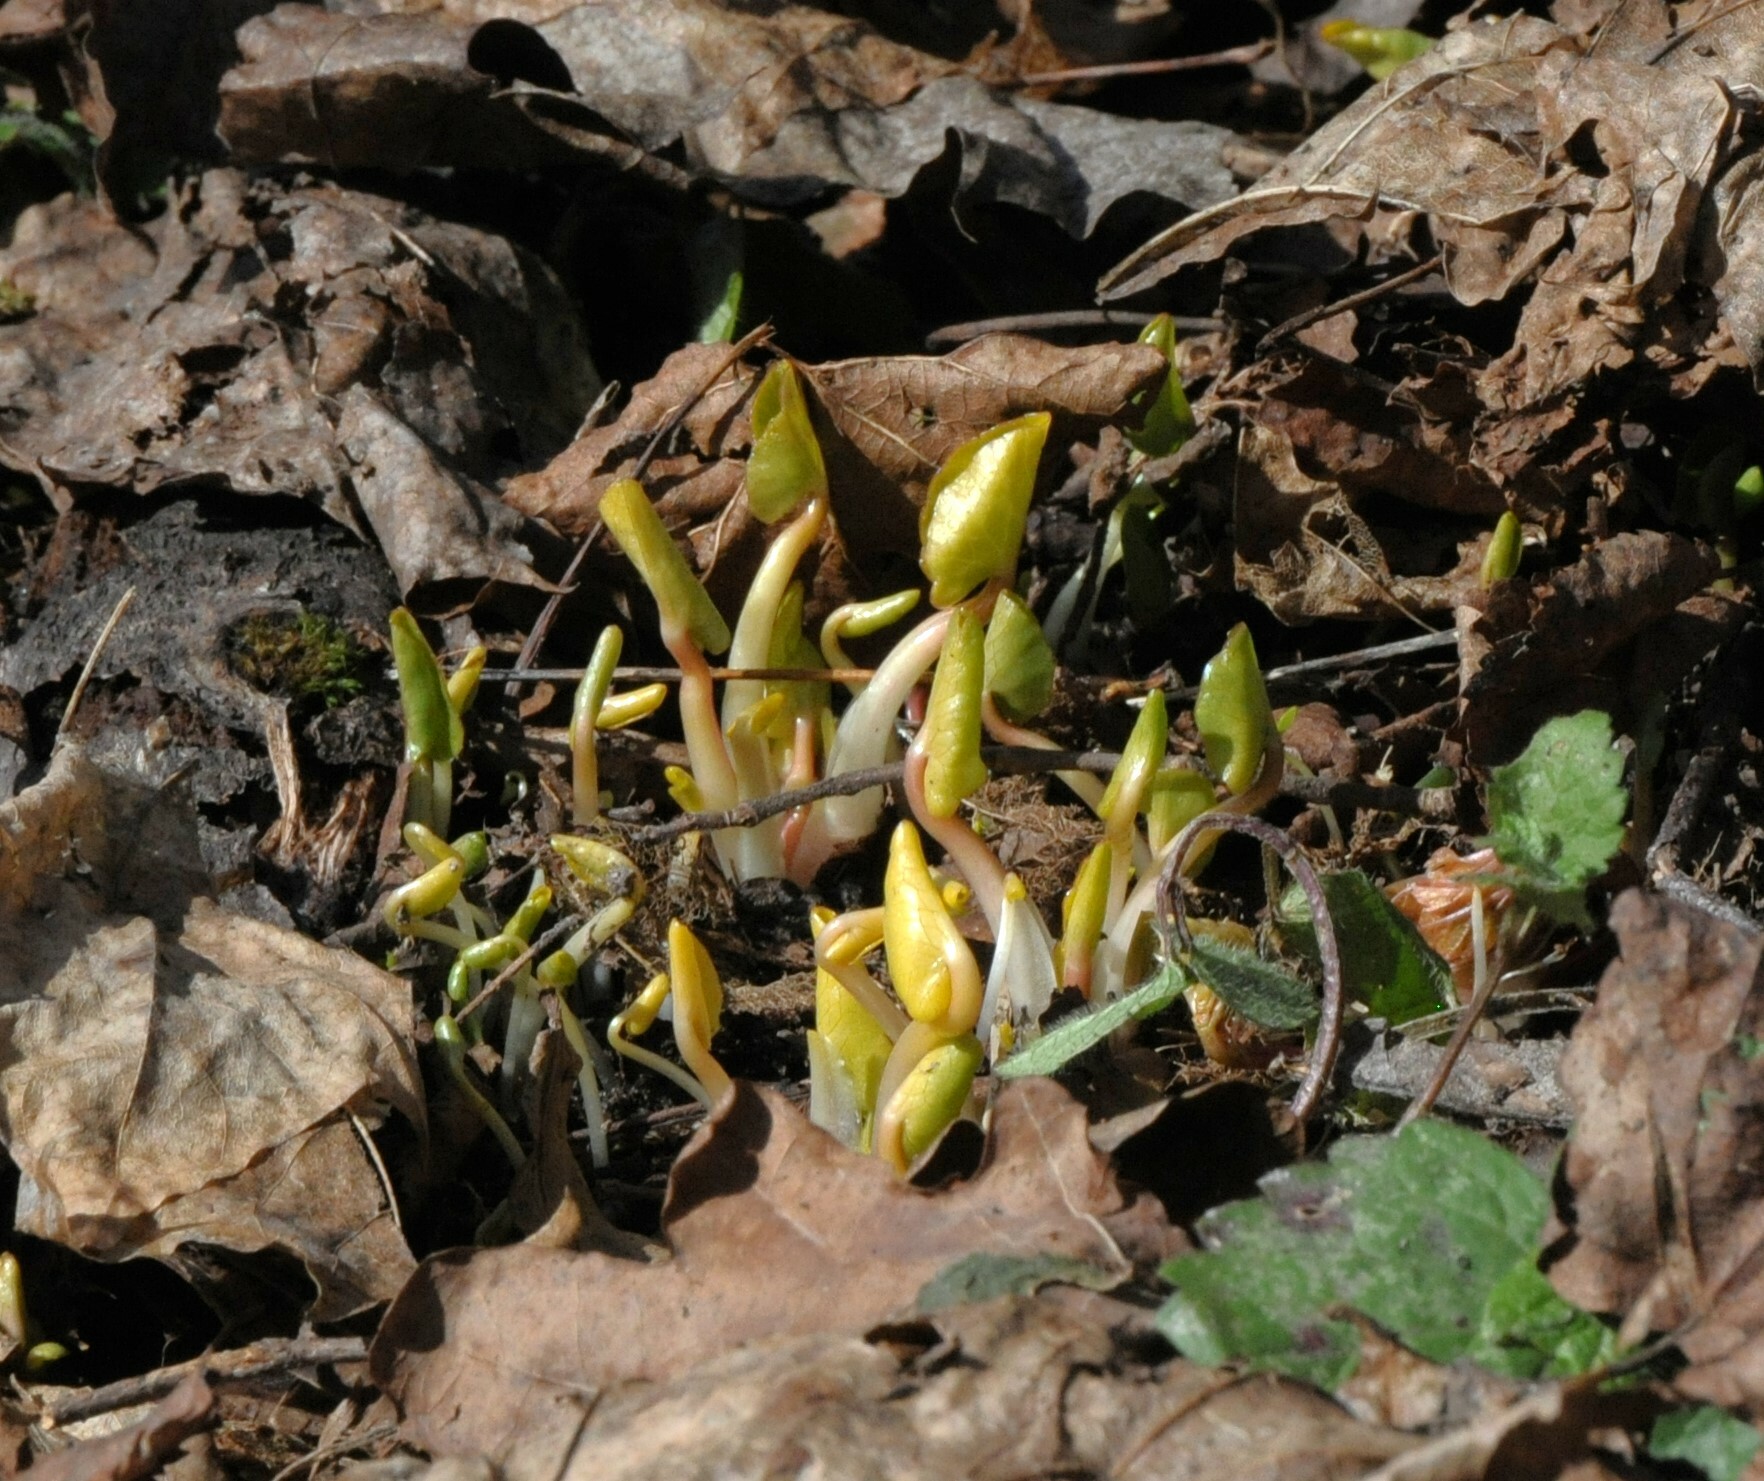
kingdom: Plantae
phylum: Tracheophyta
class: Magnoliopsida
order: Ranunculales
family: Ranunculaceae
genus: Ficaria
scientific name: Ficaria verna
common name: Lesser celandine
